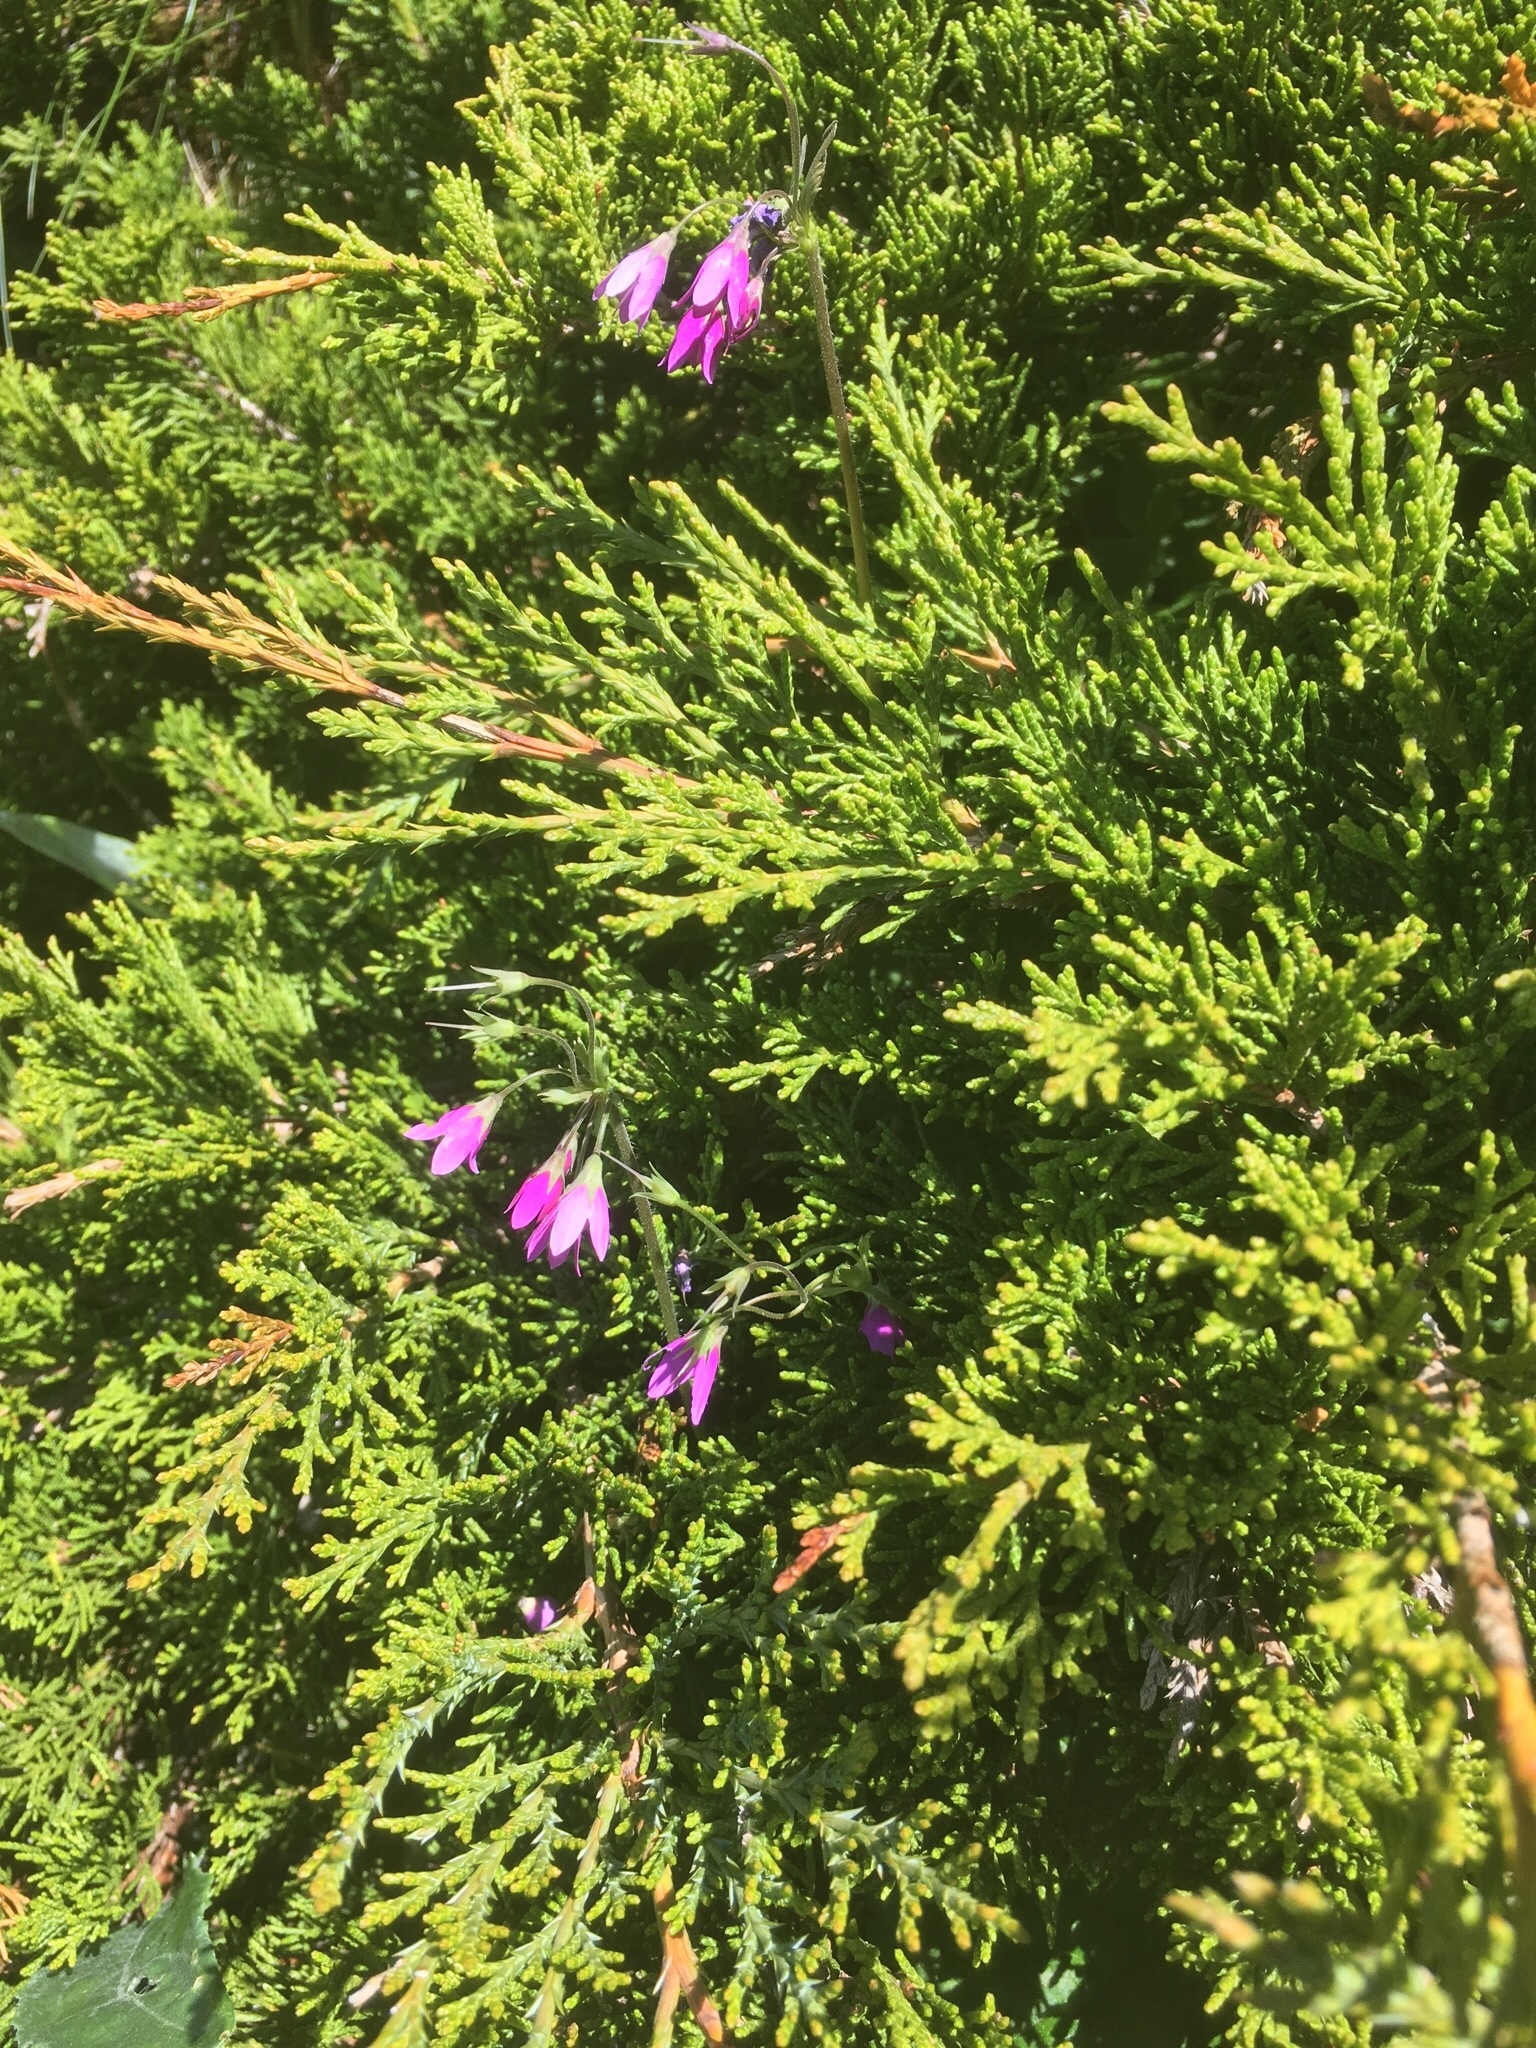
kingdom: Plantae
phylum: Tracheophyta
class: Magnoliopsida
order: Ericales
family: Primulaceae
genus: Primula
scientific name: Primula matthioli
